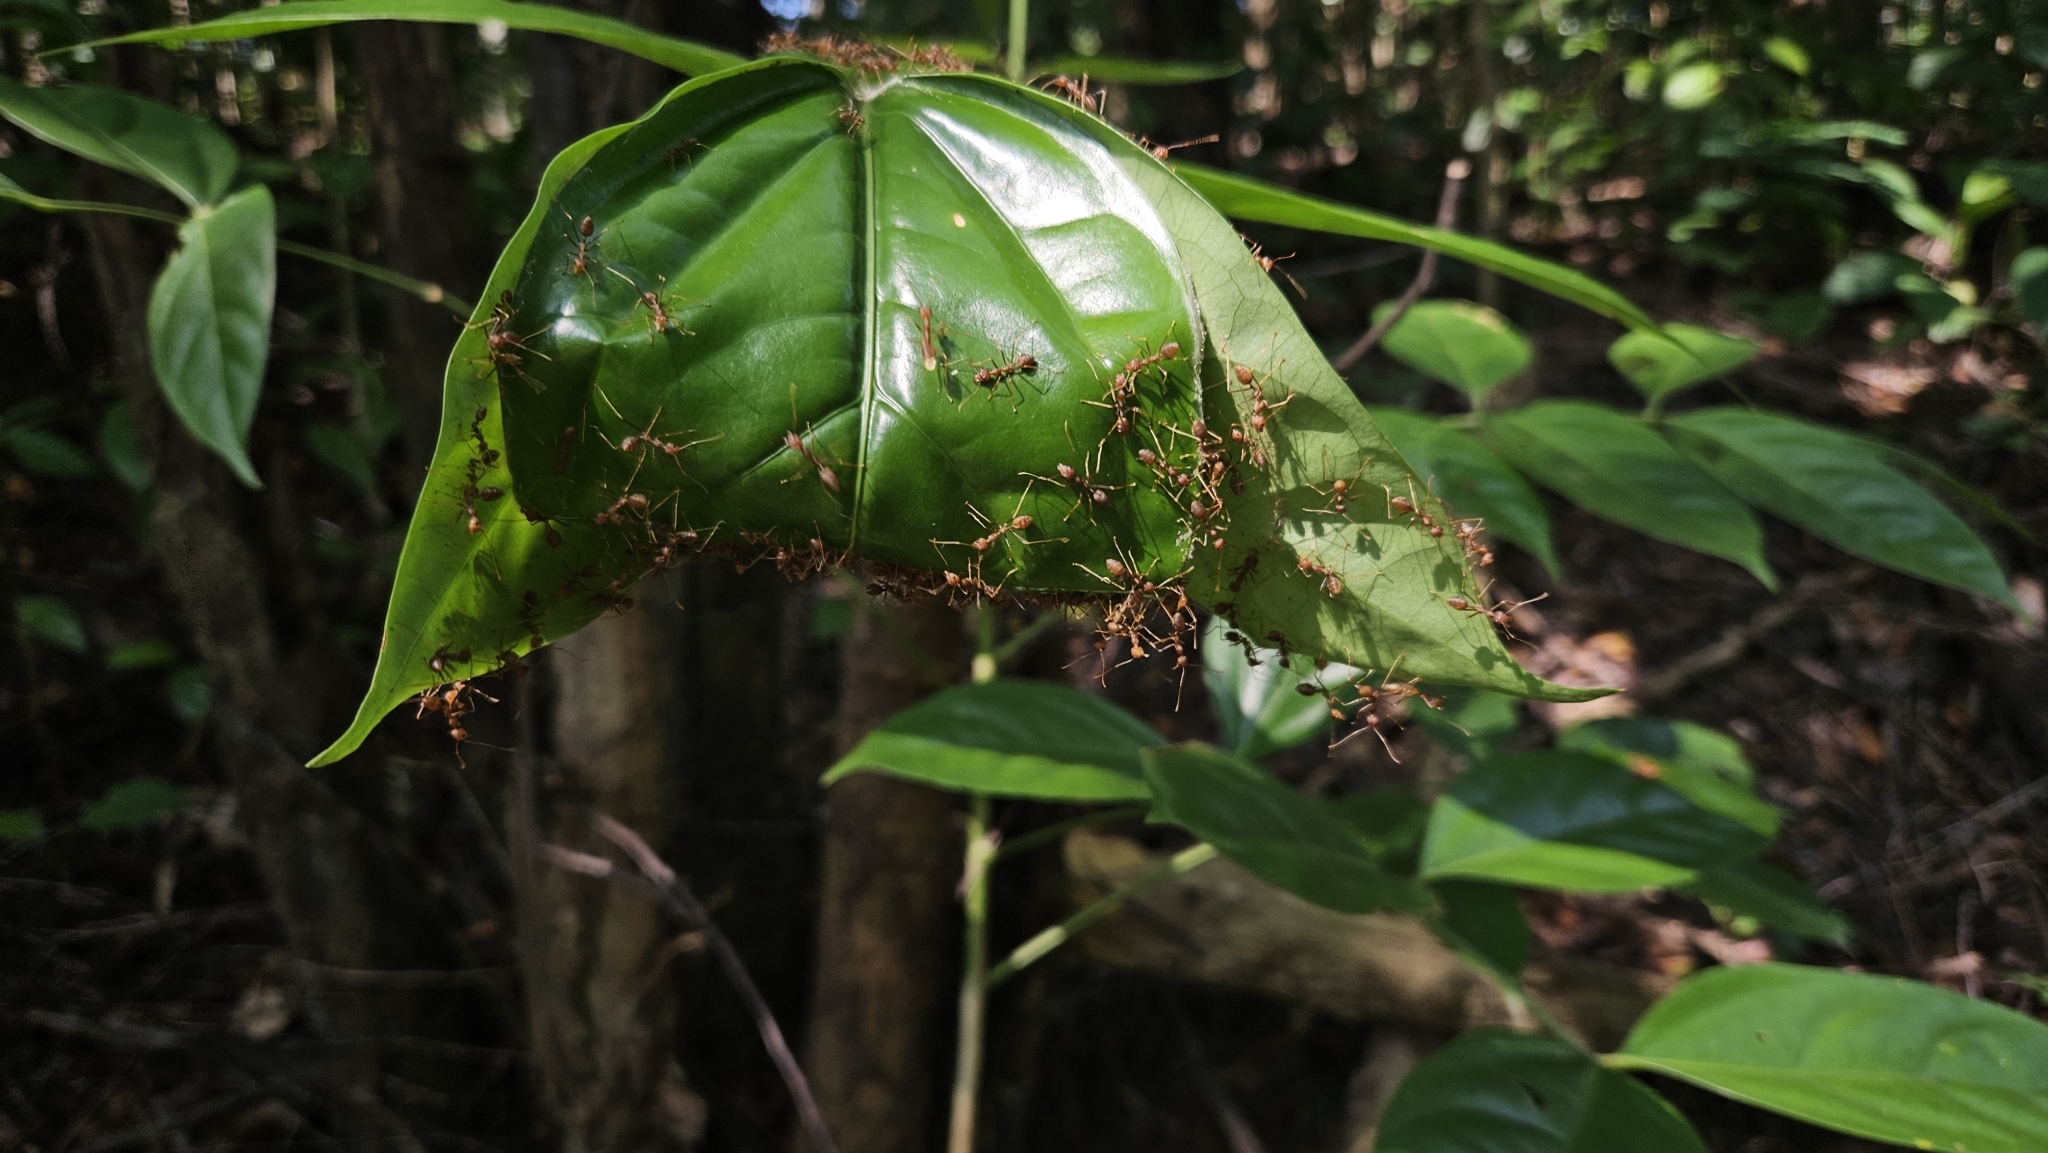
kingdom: Animalia
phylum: Arthropoda
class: Insecta
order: Hymenoptera
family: Formicidae
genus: Oecophylla
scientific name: Oecophylla smaragdina
